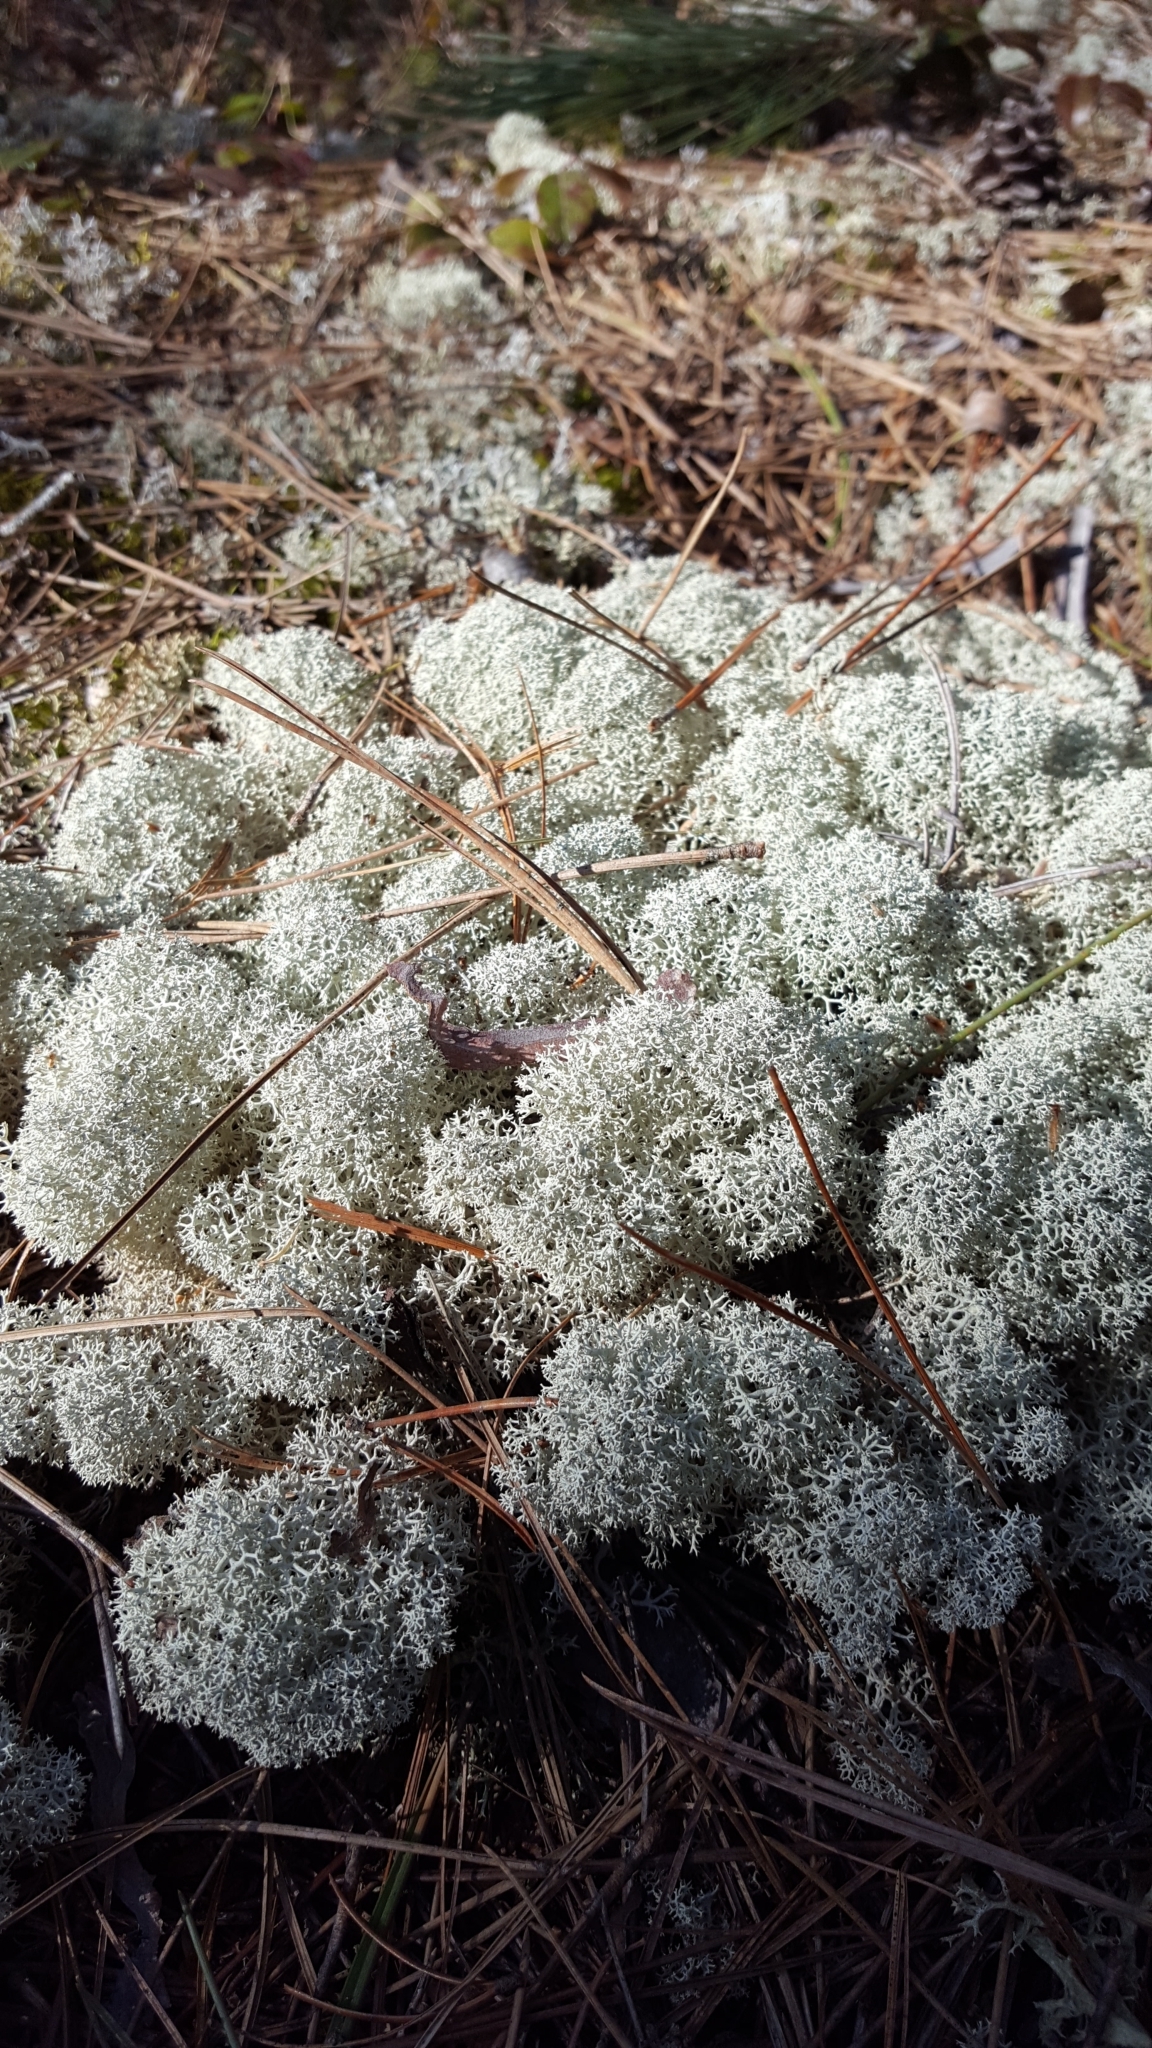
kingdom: Fungi
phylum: Ascomycota
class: Lecanoromycetes
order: Lecanorales
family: Cladoniaceae
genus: Cladonia
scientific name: Cladonia stellaris
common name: Star-tipped reindeer lichen
